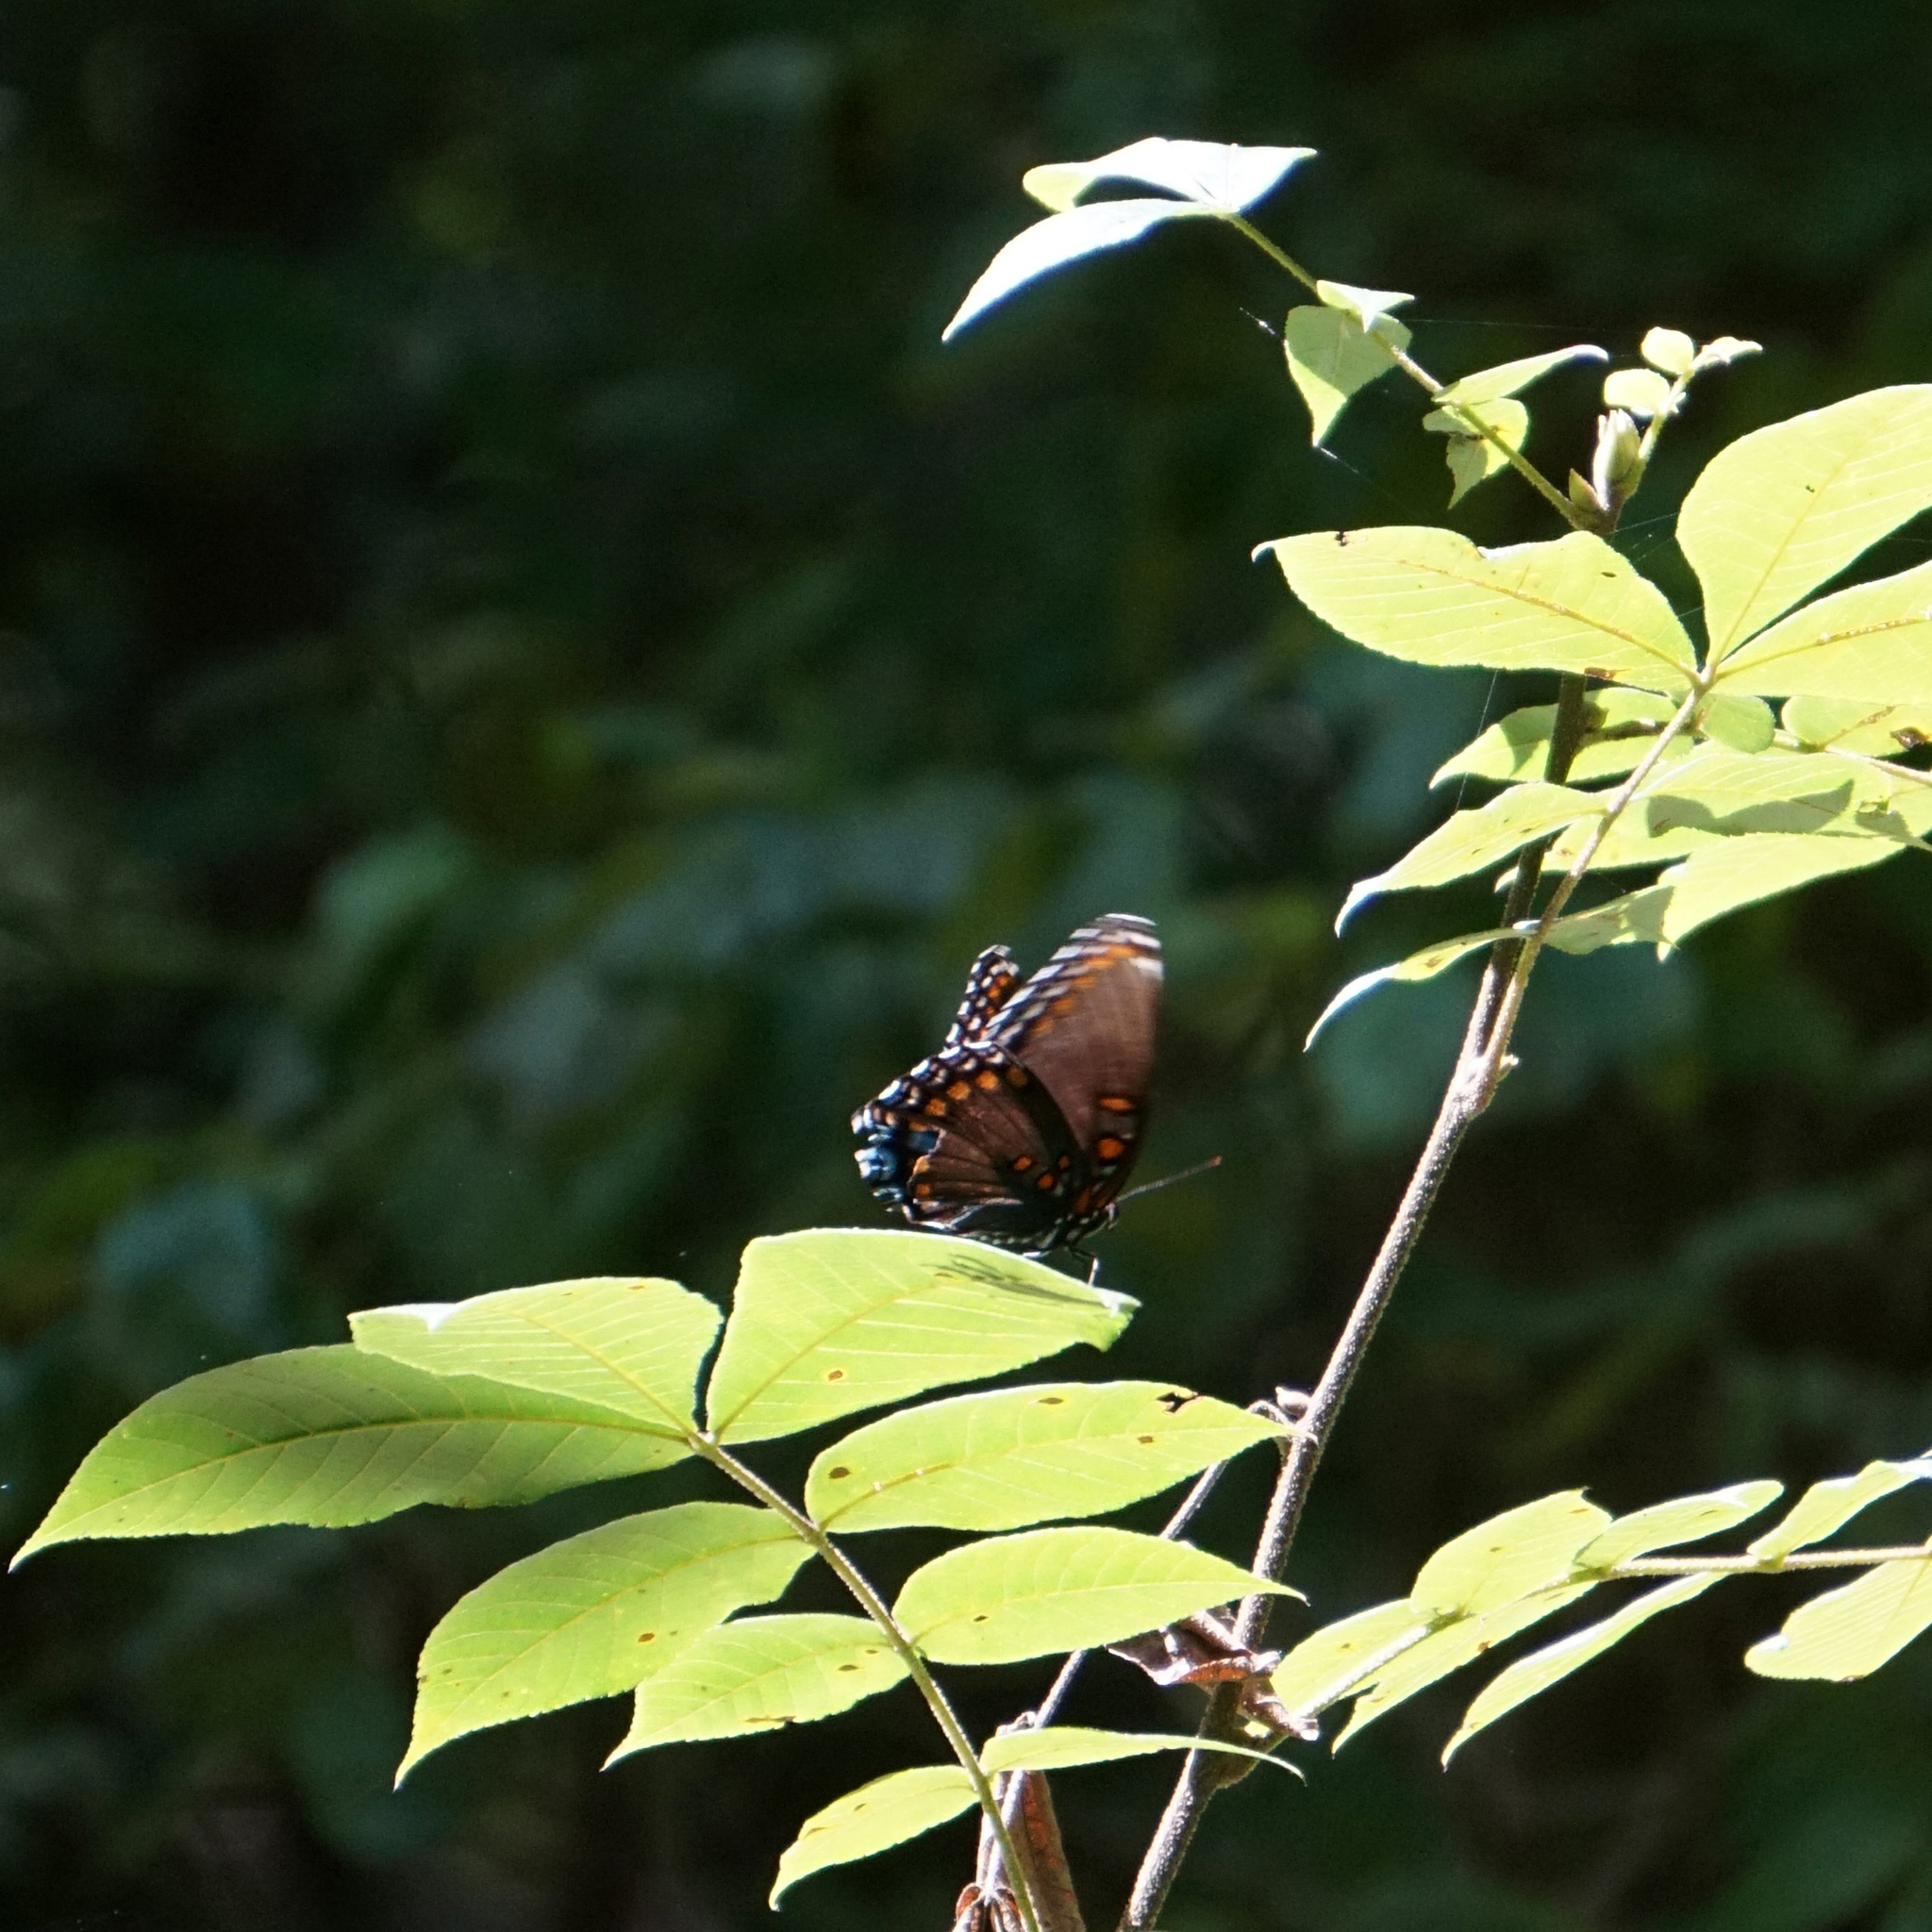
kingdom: Animalia
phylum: Arthropoda
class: Insecta
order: Lepidoptera
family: Nymphalidae
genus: Limenitis
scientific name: Limenitis astyanax
